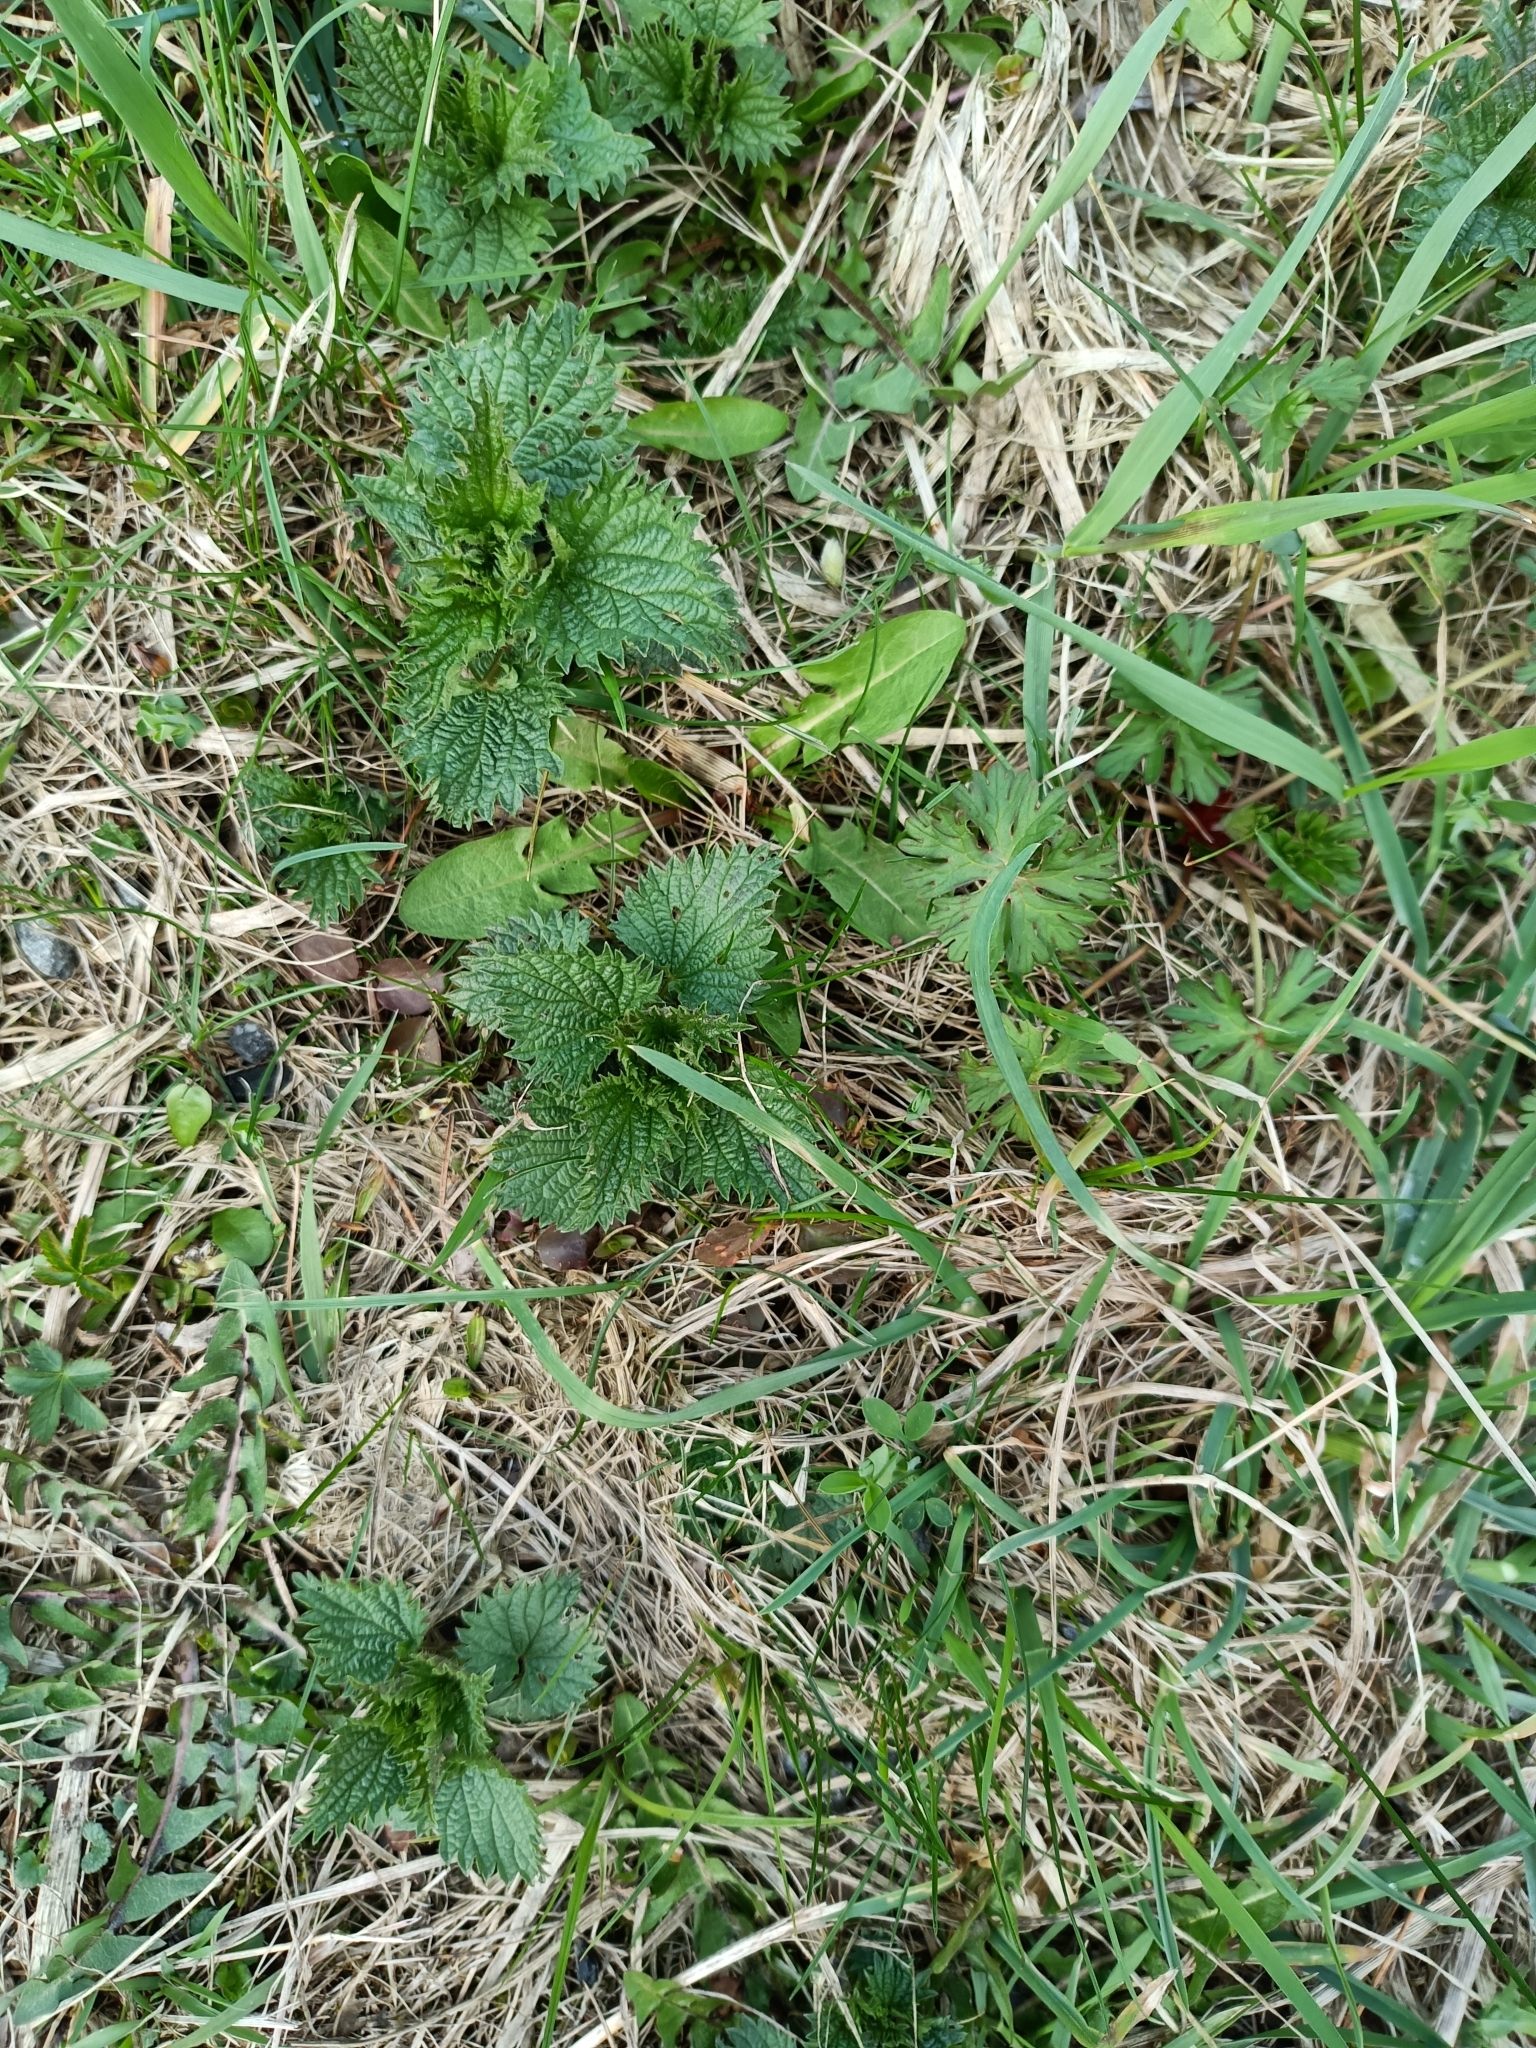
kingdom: Plantae
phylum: Tracheophyta
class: Magnoliopsida
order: Rosales
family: Urticaceae
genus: Urtica
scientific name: Urtica dioica
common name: Common nettle
